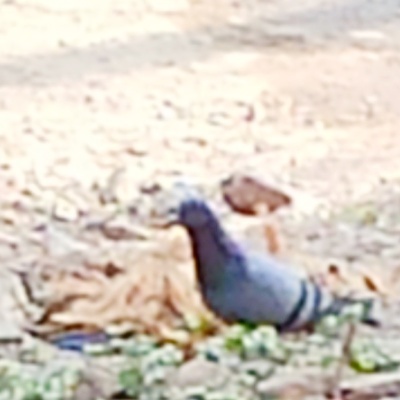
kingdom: Animalia
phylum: Chordata
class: Aves
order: Columbiformes
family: Columbidae
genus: Columba
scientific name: Columba livia
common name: Rock pigeon
